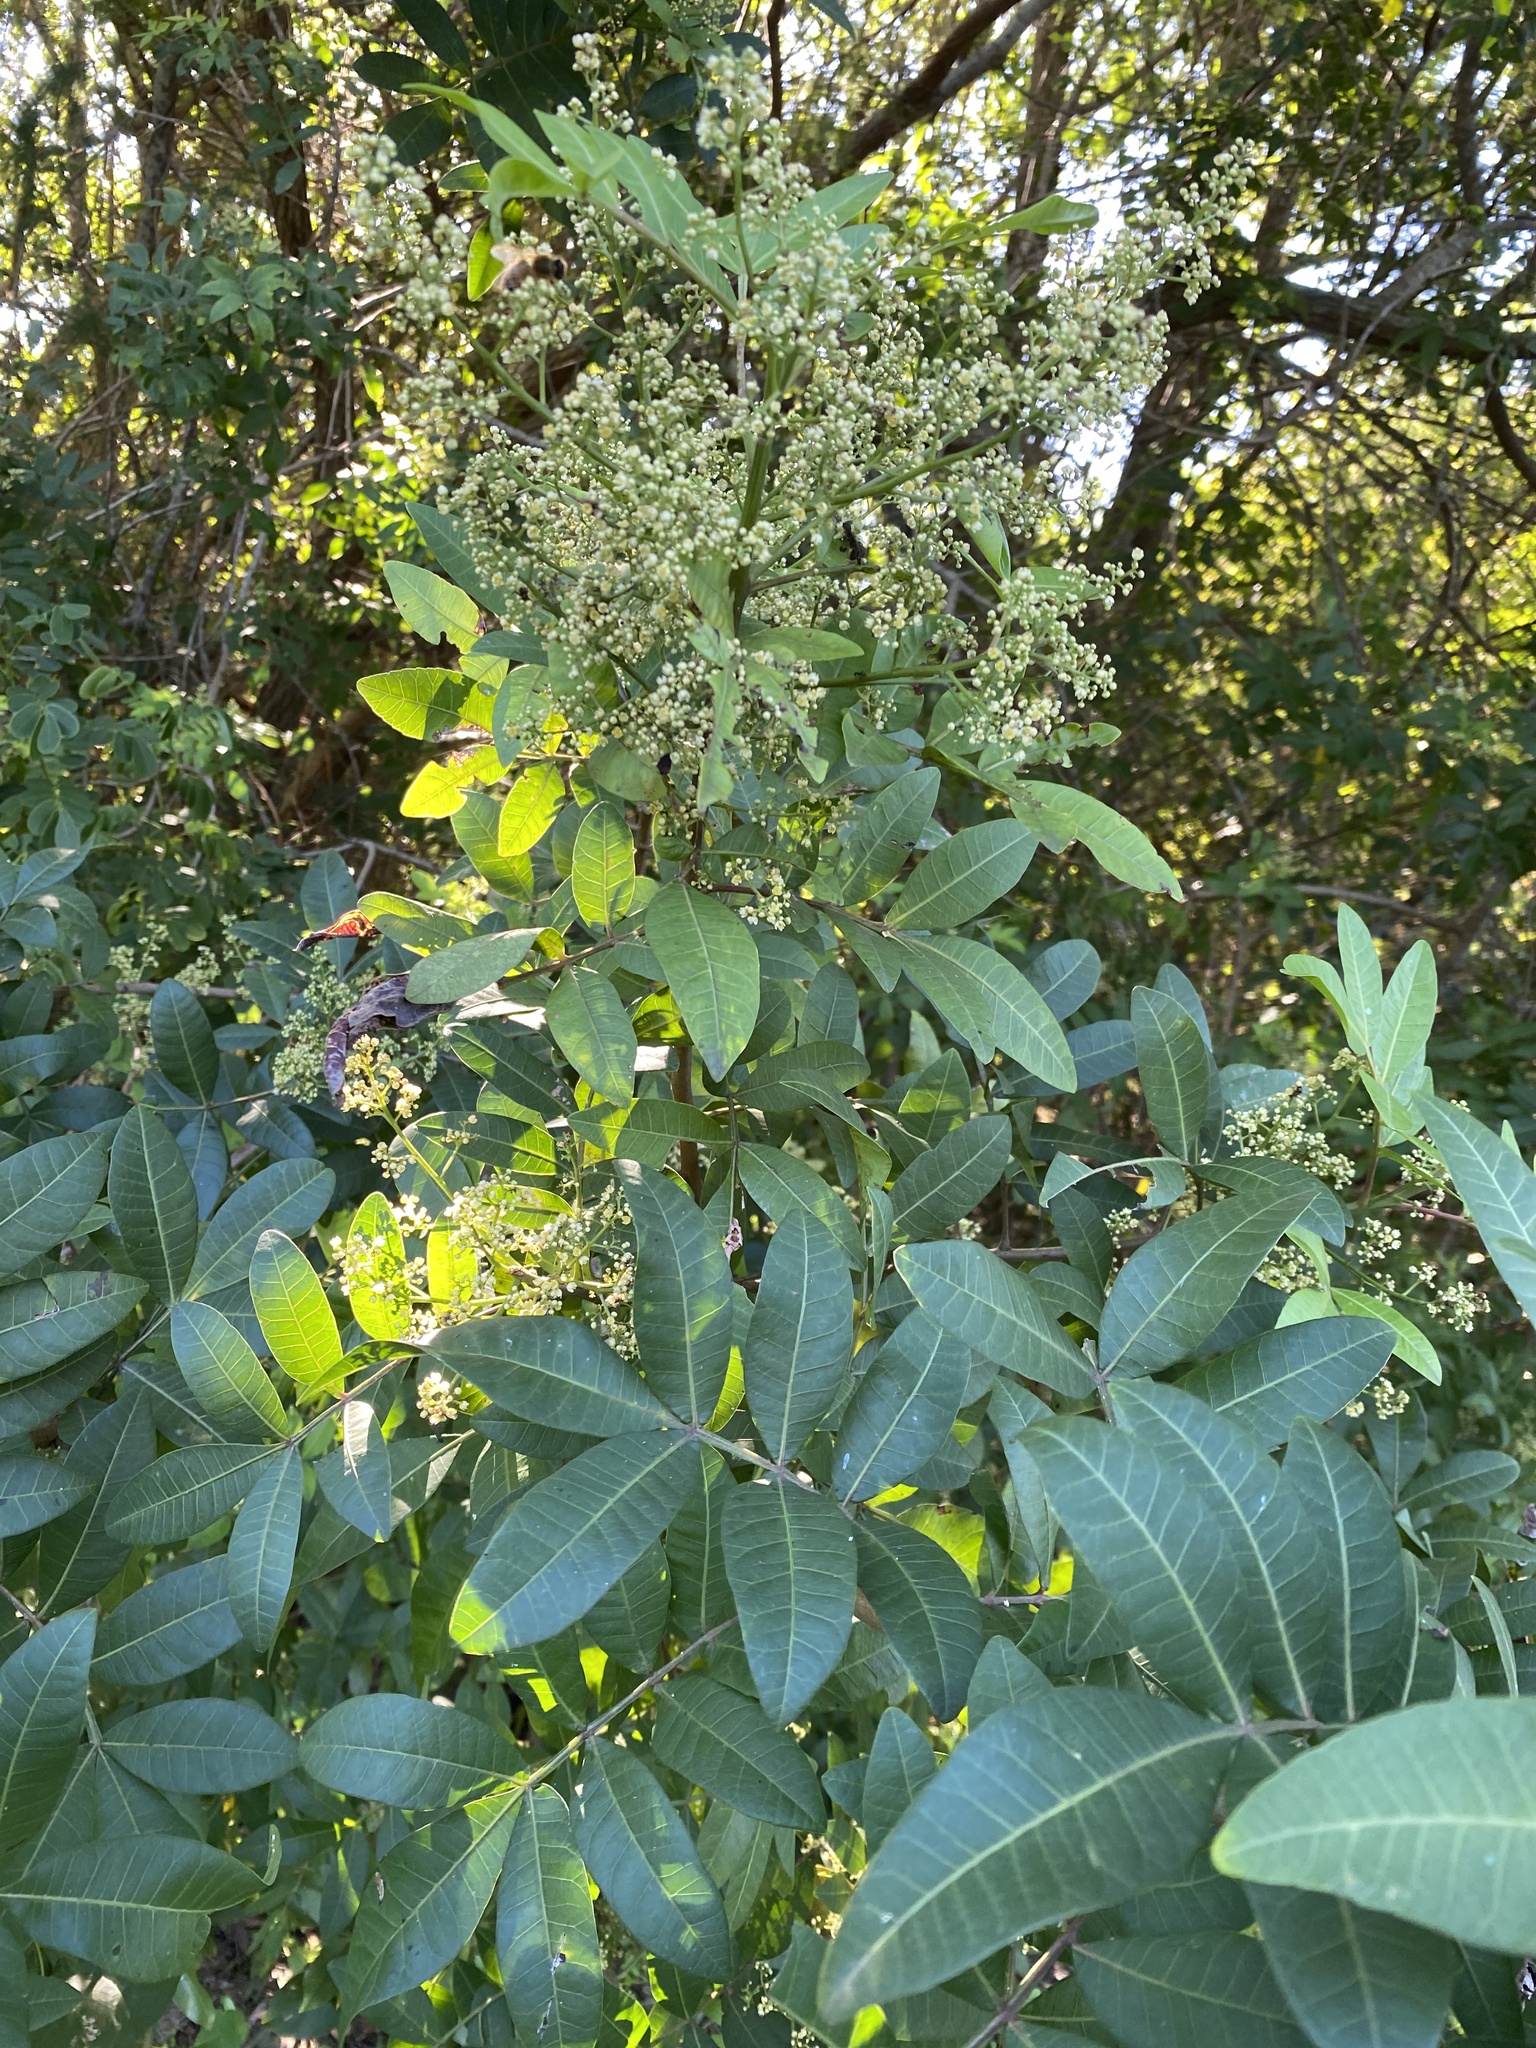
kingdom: Plantae
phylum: Tracheophyta
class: Magnoliopsida
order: Sapindales
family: Anacardiaceae
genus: Schinus
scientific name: Schinus terebinthifolia
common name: Brazilian peppertree
